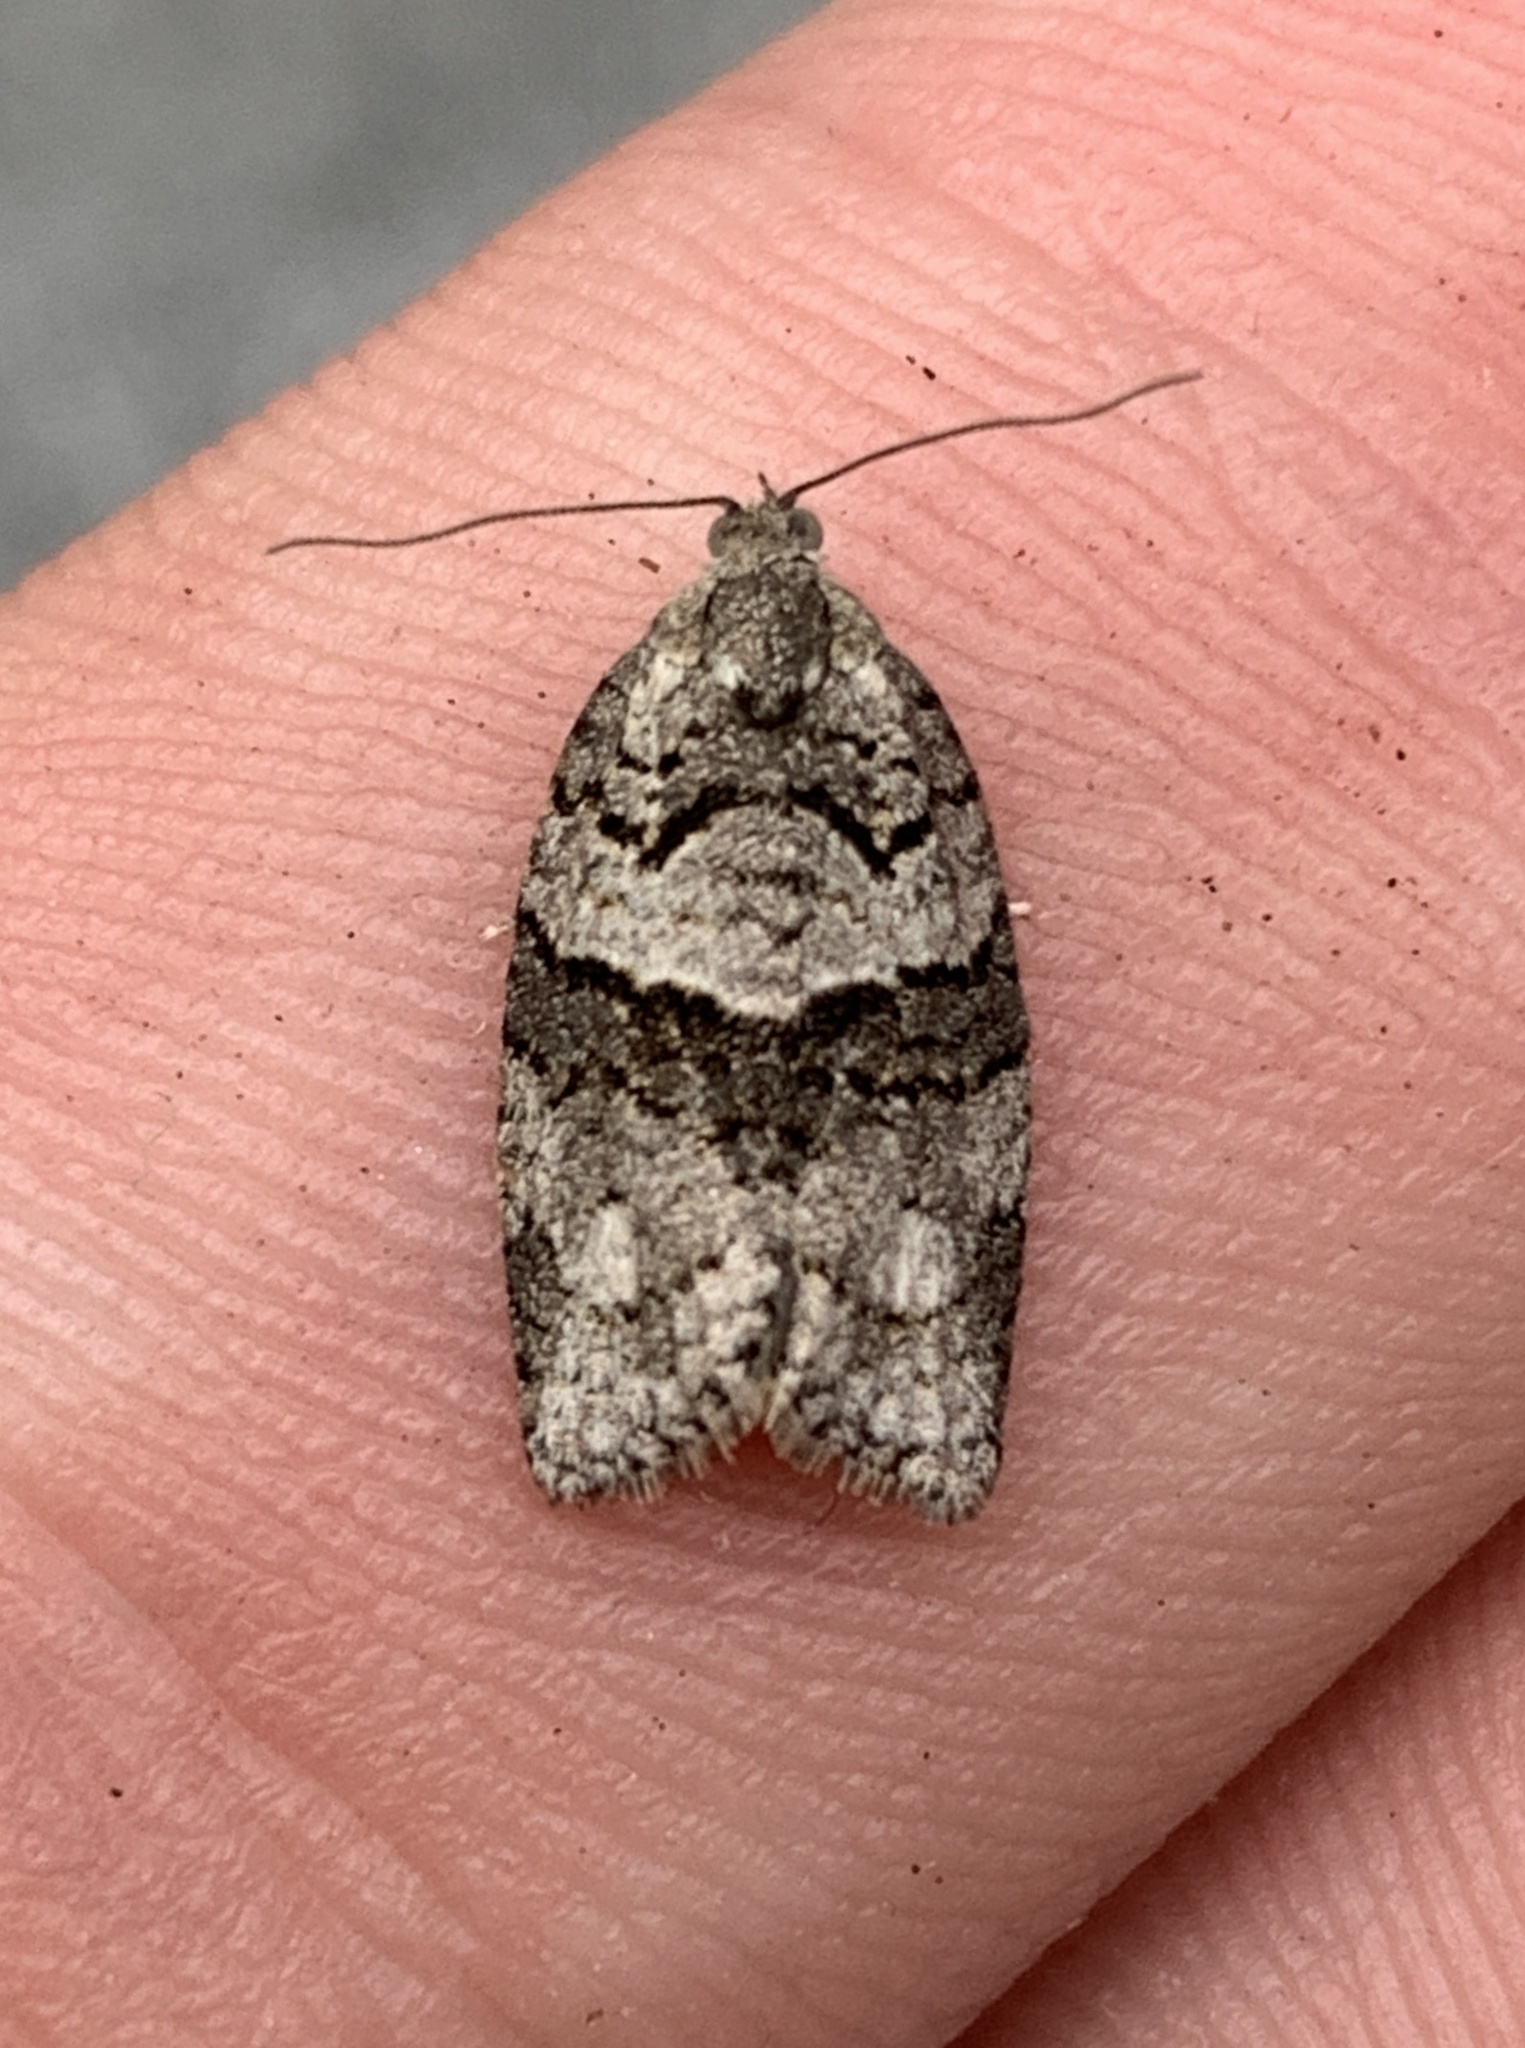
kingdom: Animalia
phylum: Arthropoda
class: Insecta
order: Lepidoptera
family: Tortricidae
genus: Syndemis
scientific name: Syndemis afflictana
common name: Gray leafroller moth
